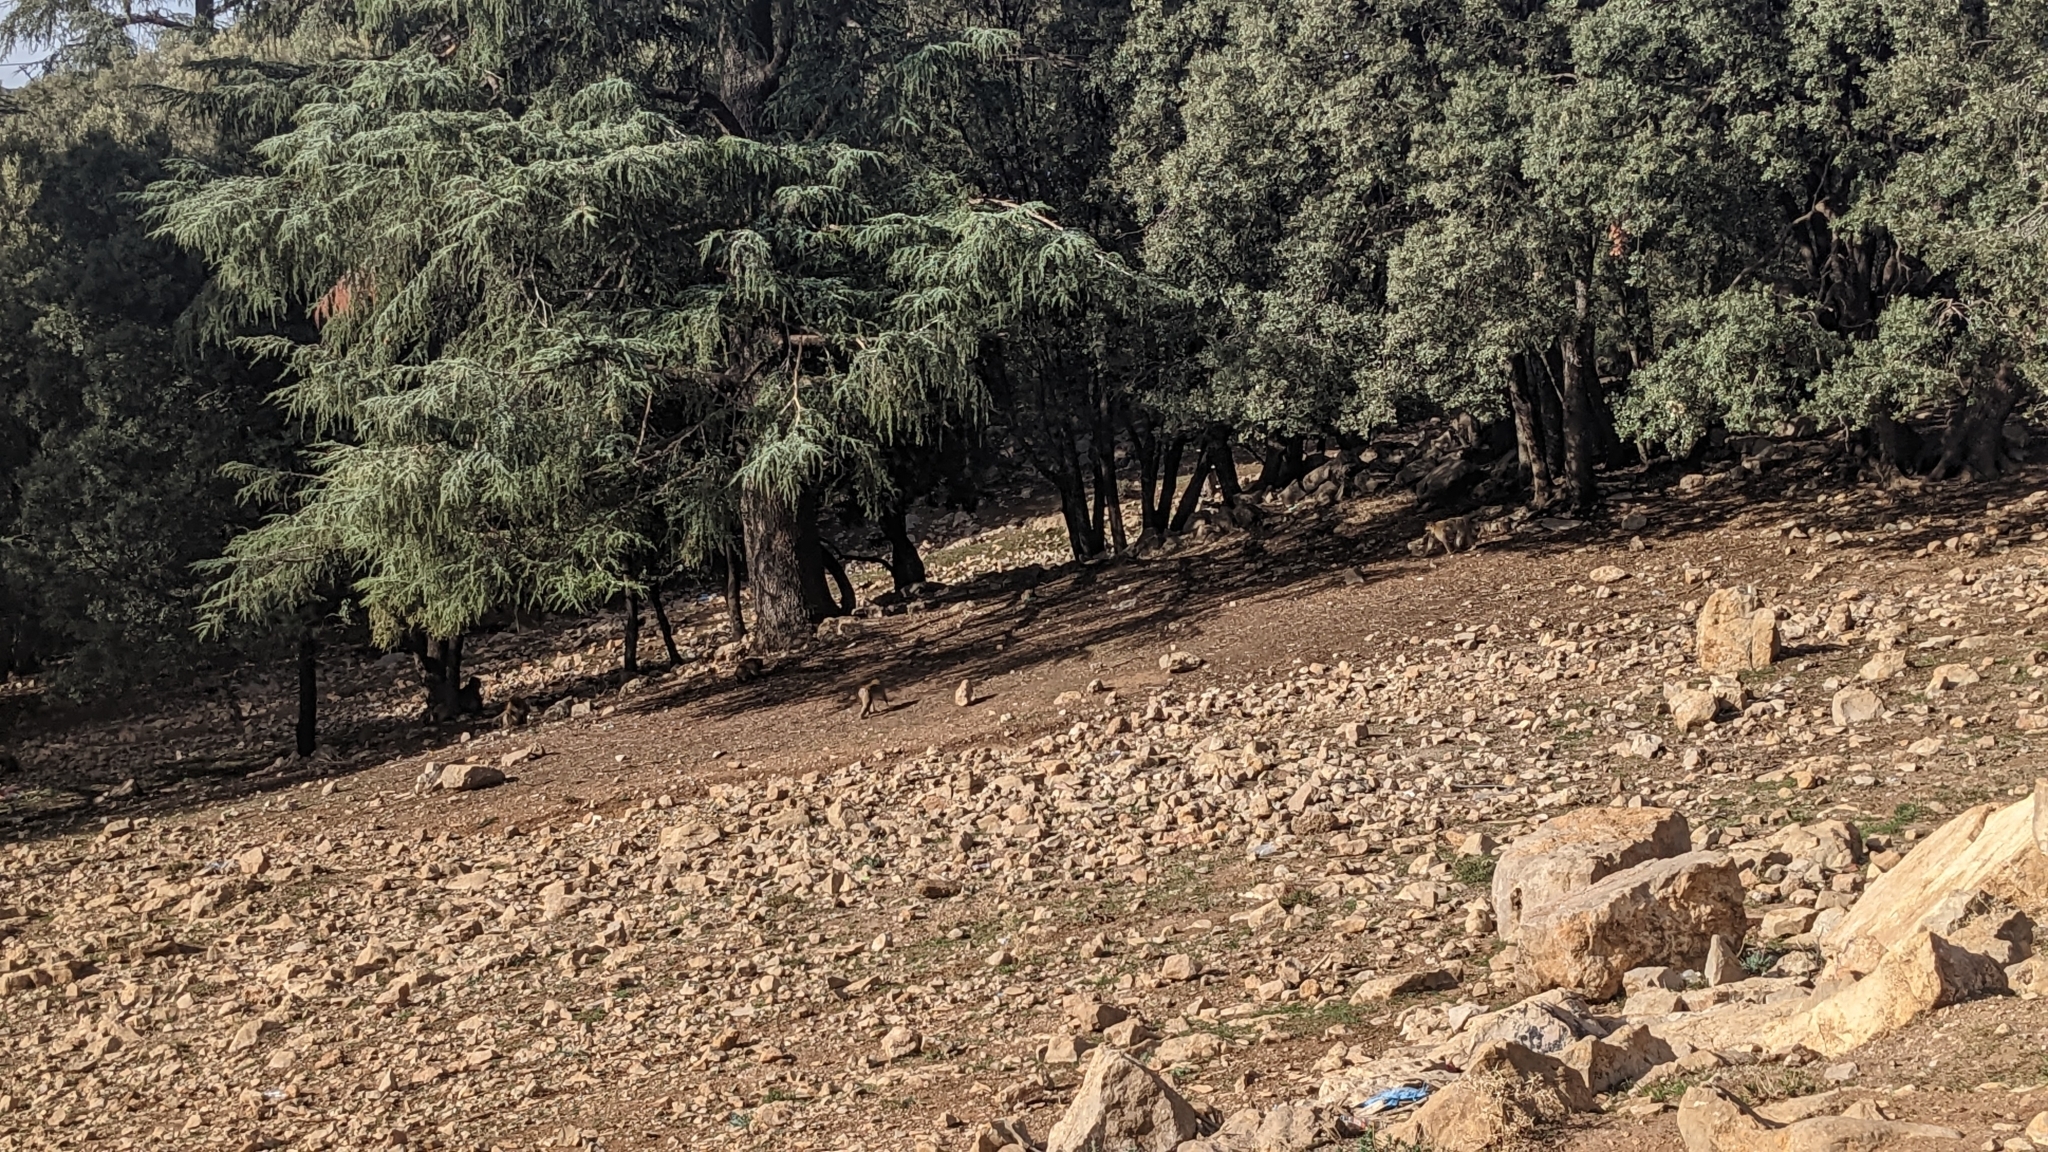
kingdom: Plantae
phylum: Tracheophyta
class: Pinopsida
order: Pinales
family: Pinaceae
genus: Cedrus
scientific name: Cedrus atlantica
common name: Atlas cedar
